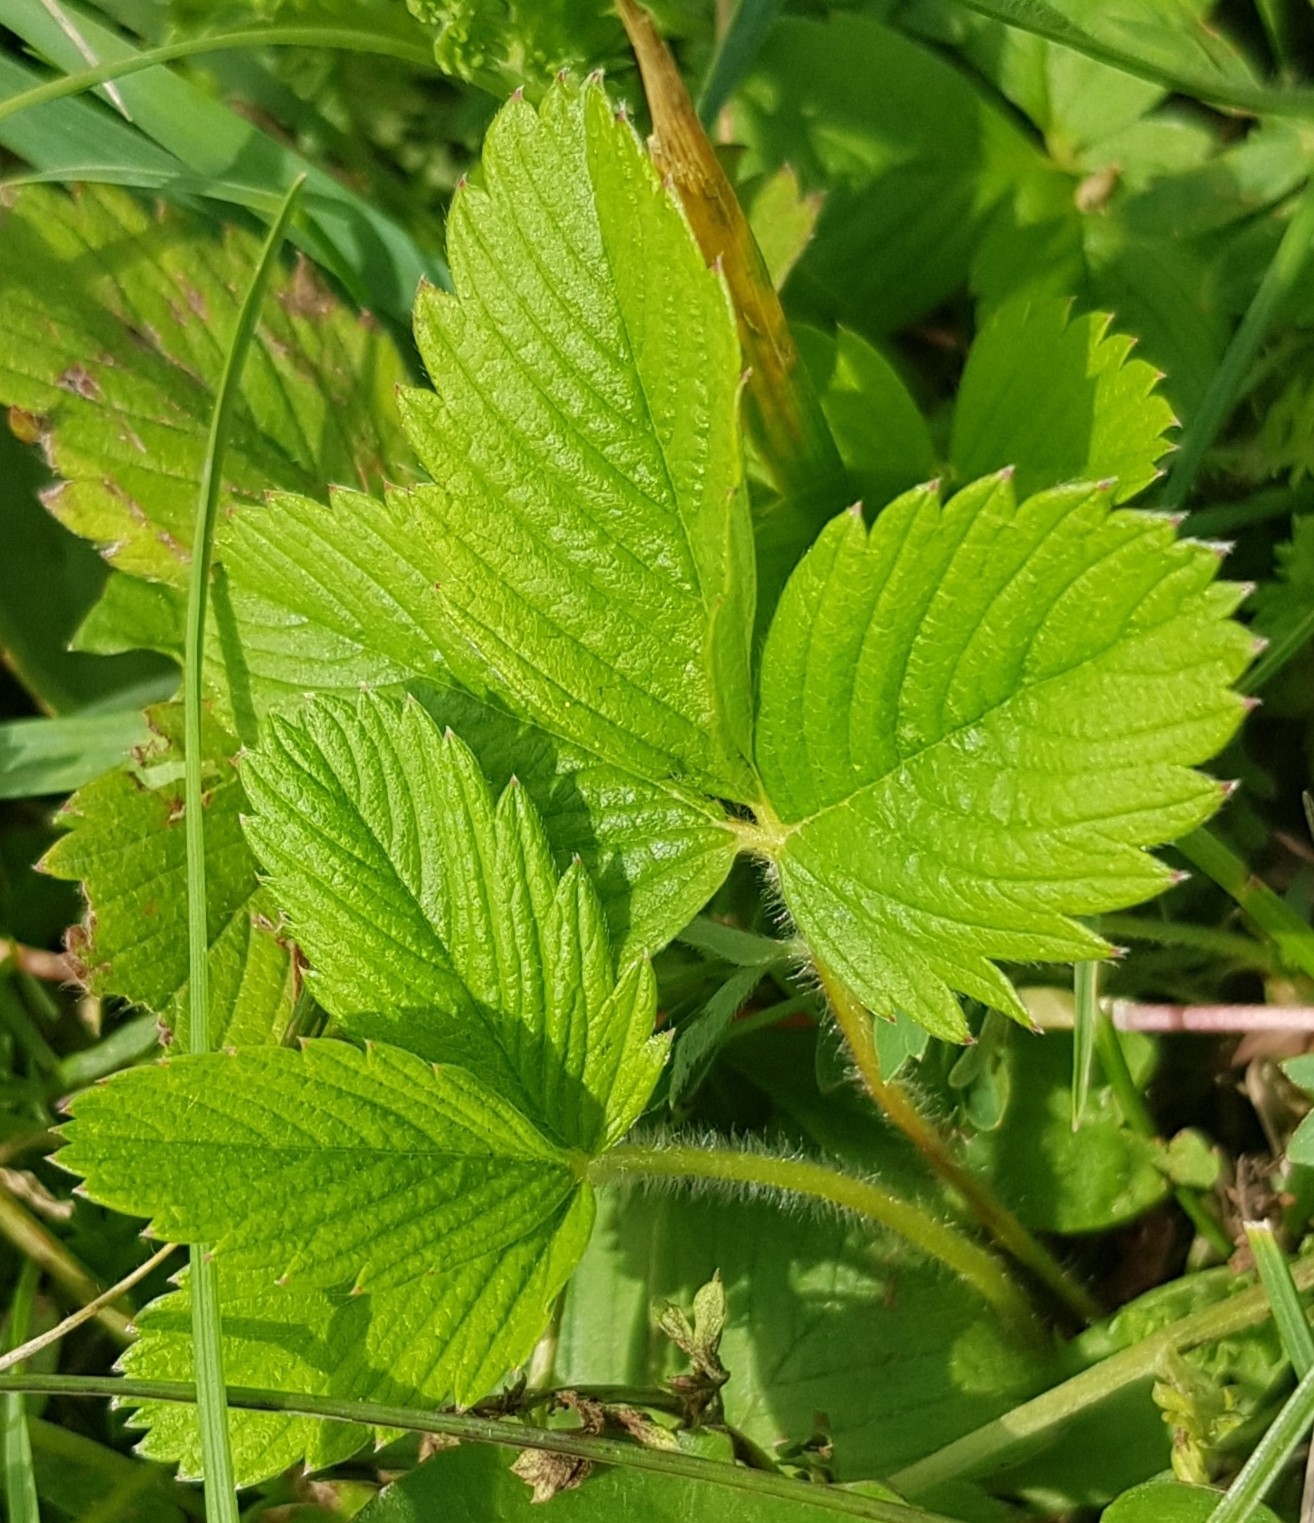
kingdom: Plantae
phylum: Tracheophyta
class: Magnoliopsida
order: Rosales
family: Rosaceae
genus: Fragaria
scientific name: Fragaria orientalis
